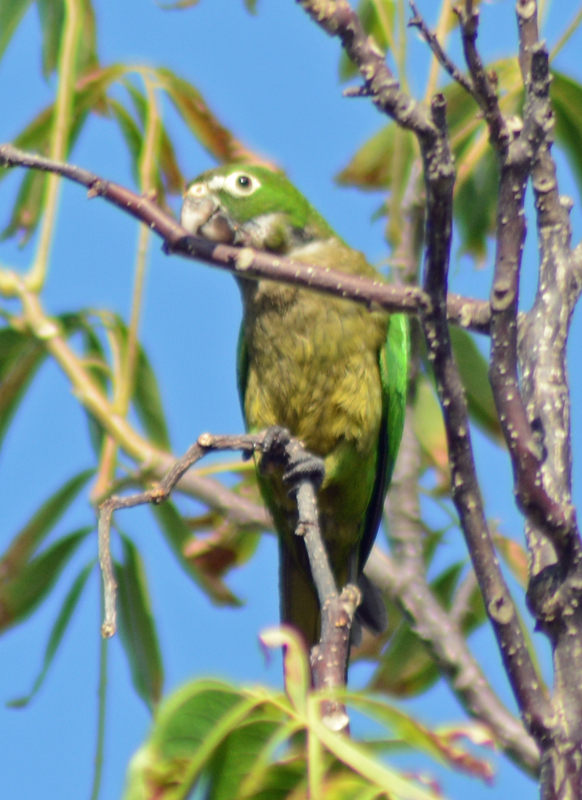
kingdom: Animalia
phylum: Chordata
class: Aves
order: Psittaciformes
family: Psittacidae
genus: Aratinga
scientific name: Aratinga nana
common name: Olive-throated parakeet
